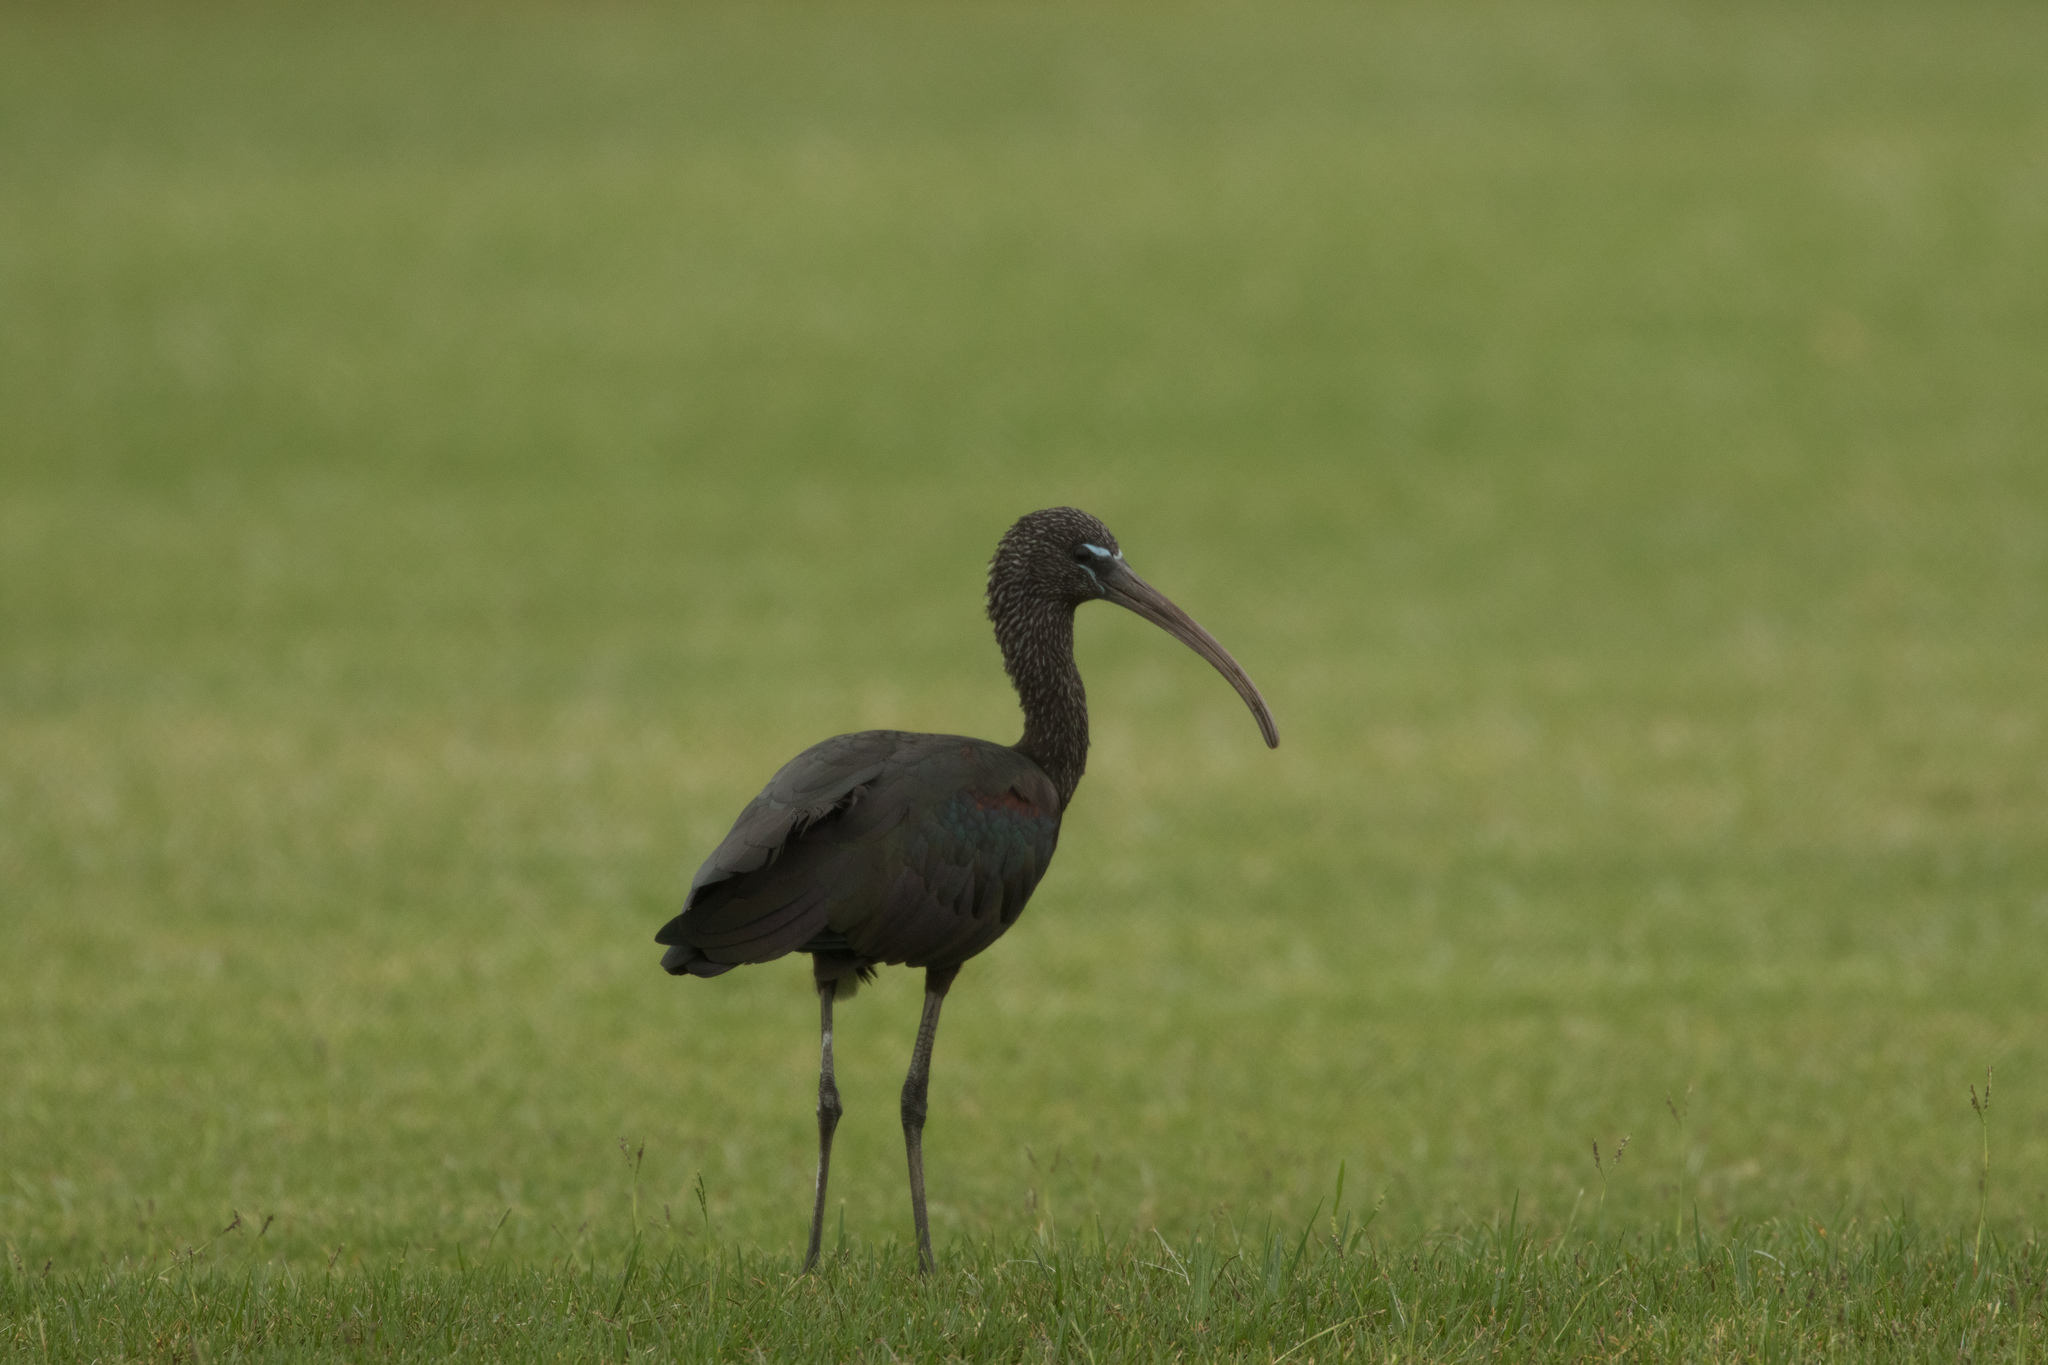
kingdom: Animalia
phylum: Chordata
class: Aves
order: Pelecaniformes
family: Threskiornithidae
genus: Plegadis
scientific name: Plegadis falcinellus
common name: Glossy ibis
